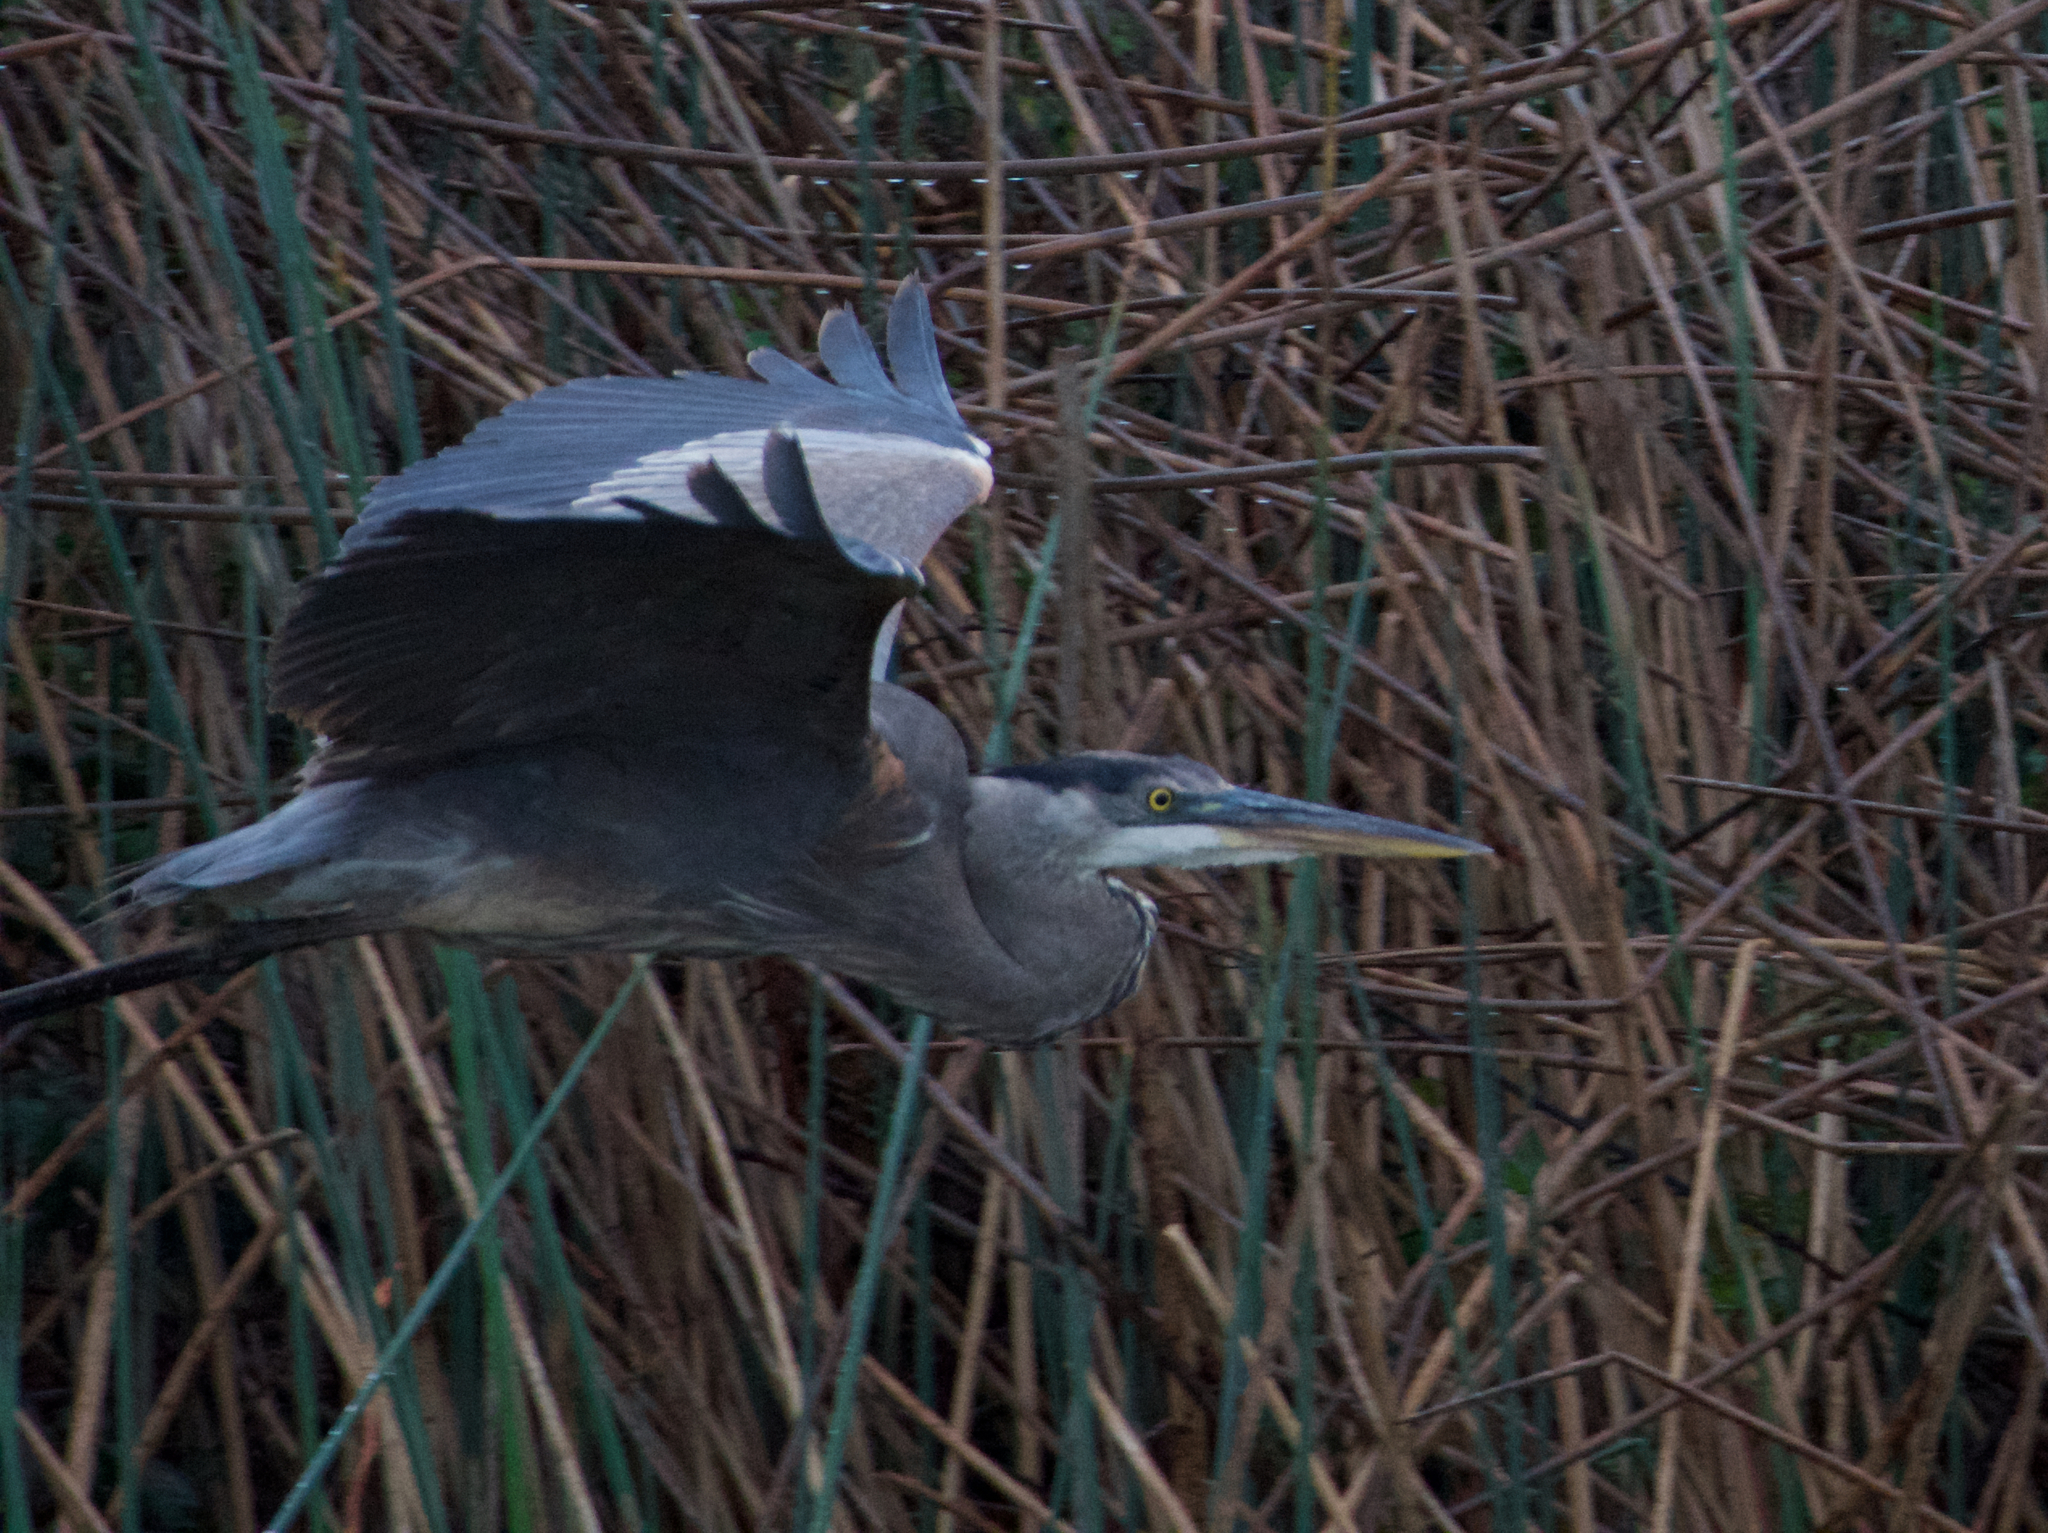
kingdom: Animalia
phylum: Chordata
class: Aves
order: Pelecaniformes
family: Ardeidae
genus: Ardea
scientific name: Ardea herodias
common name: Great blue heron
